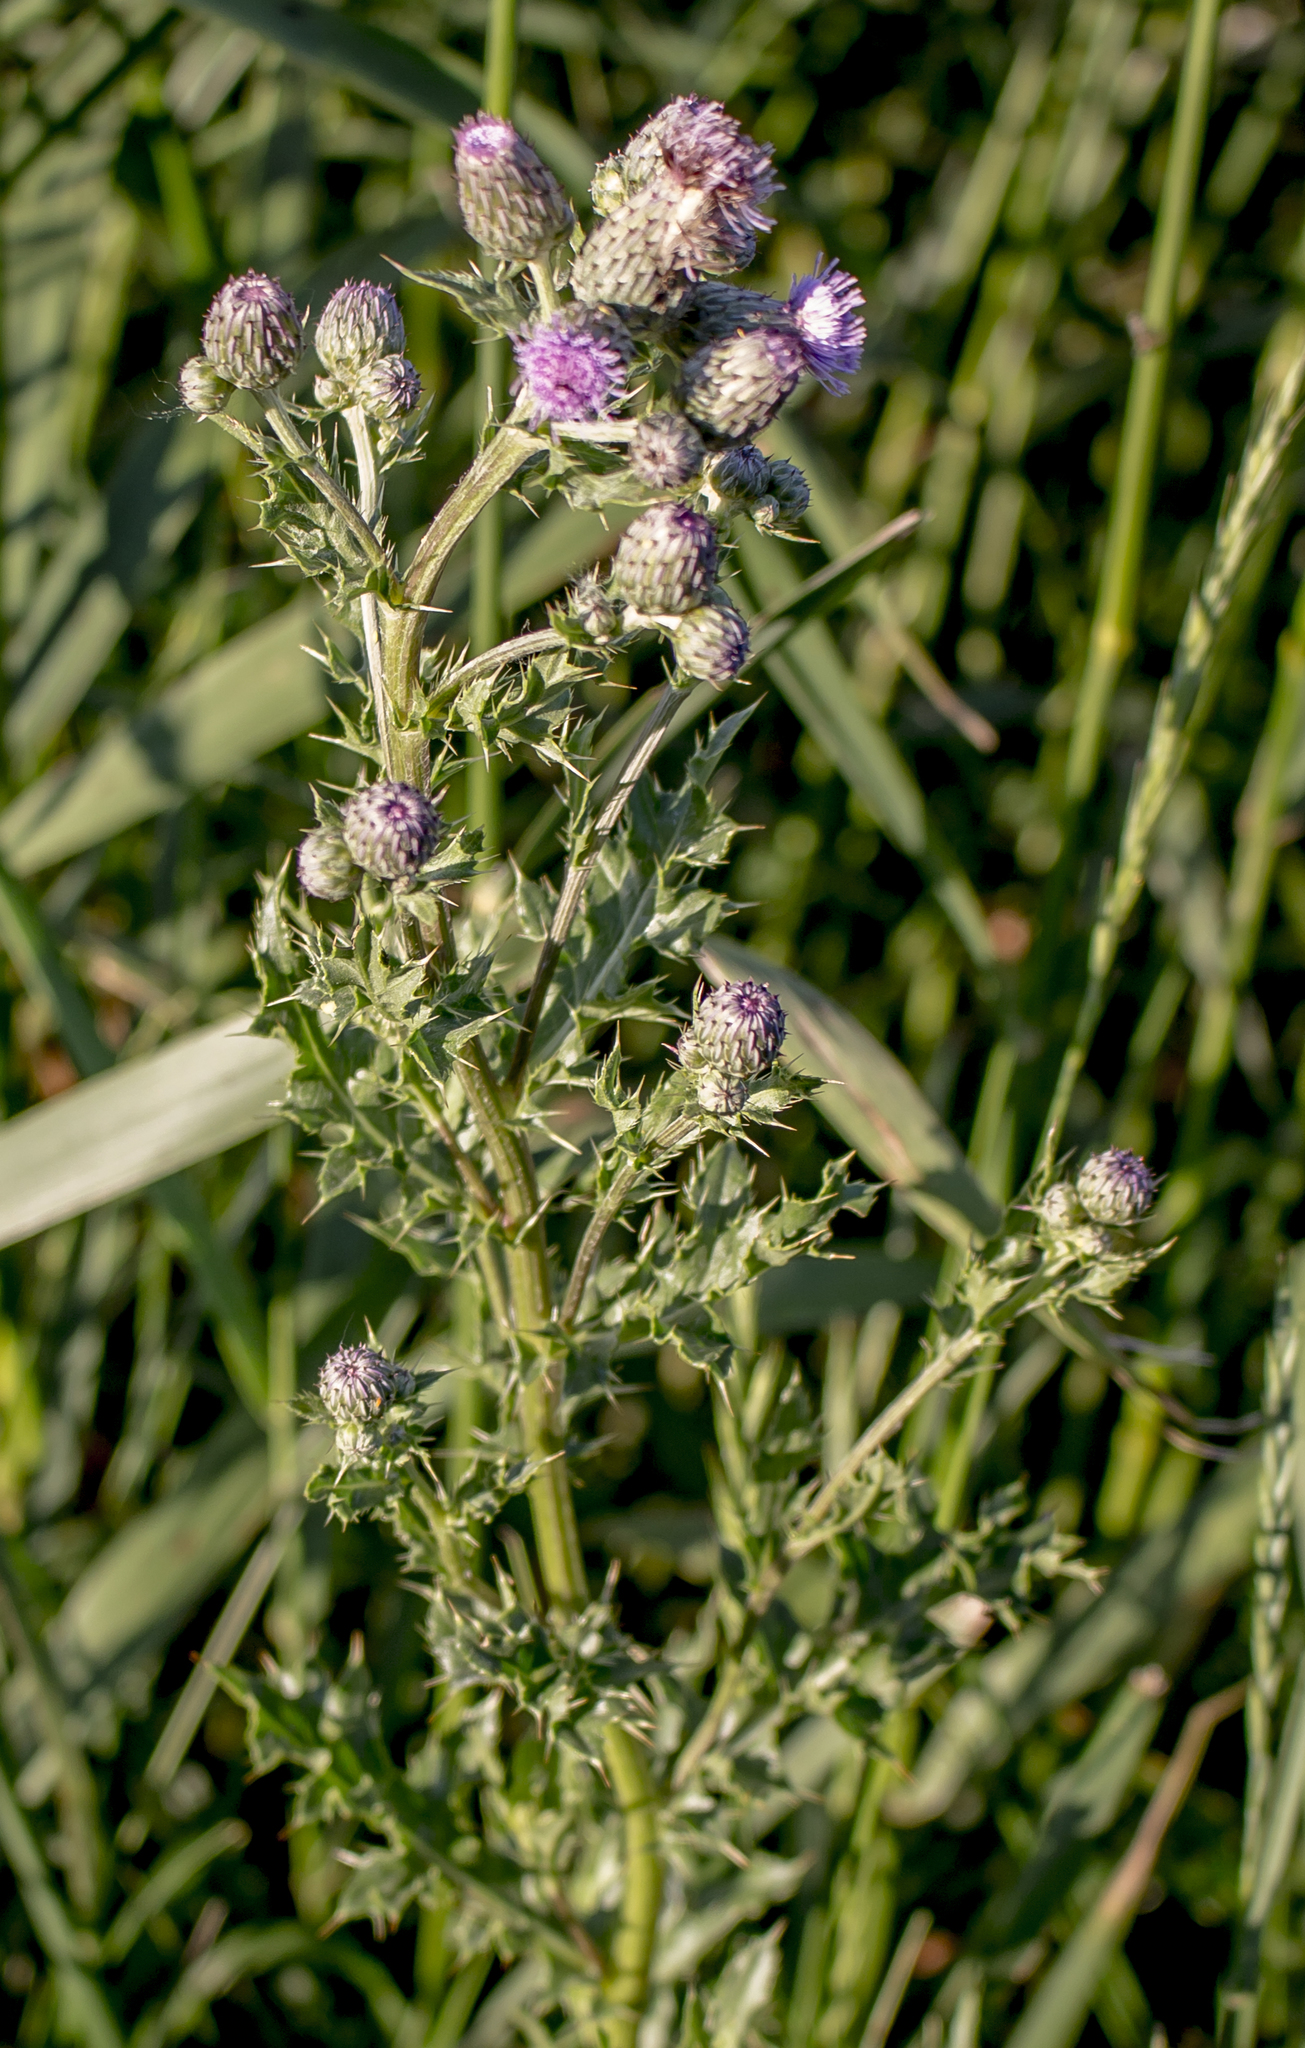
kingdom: Plantae
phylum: Tracheophyta
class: Magnoliopsida
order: Asterales
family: Asteraceae
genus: Cirsium
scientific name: Cirsium arvense
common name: Creeping thistle
